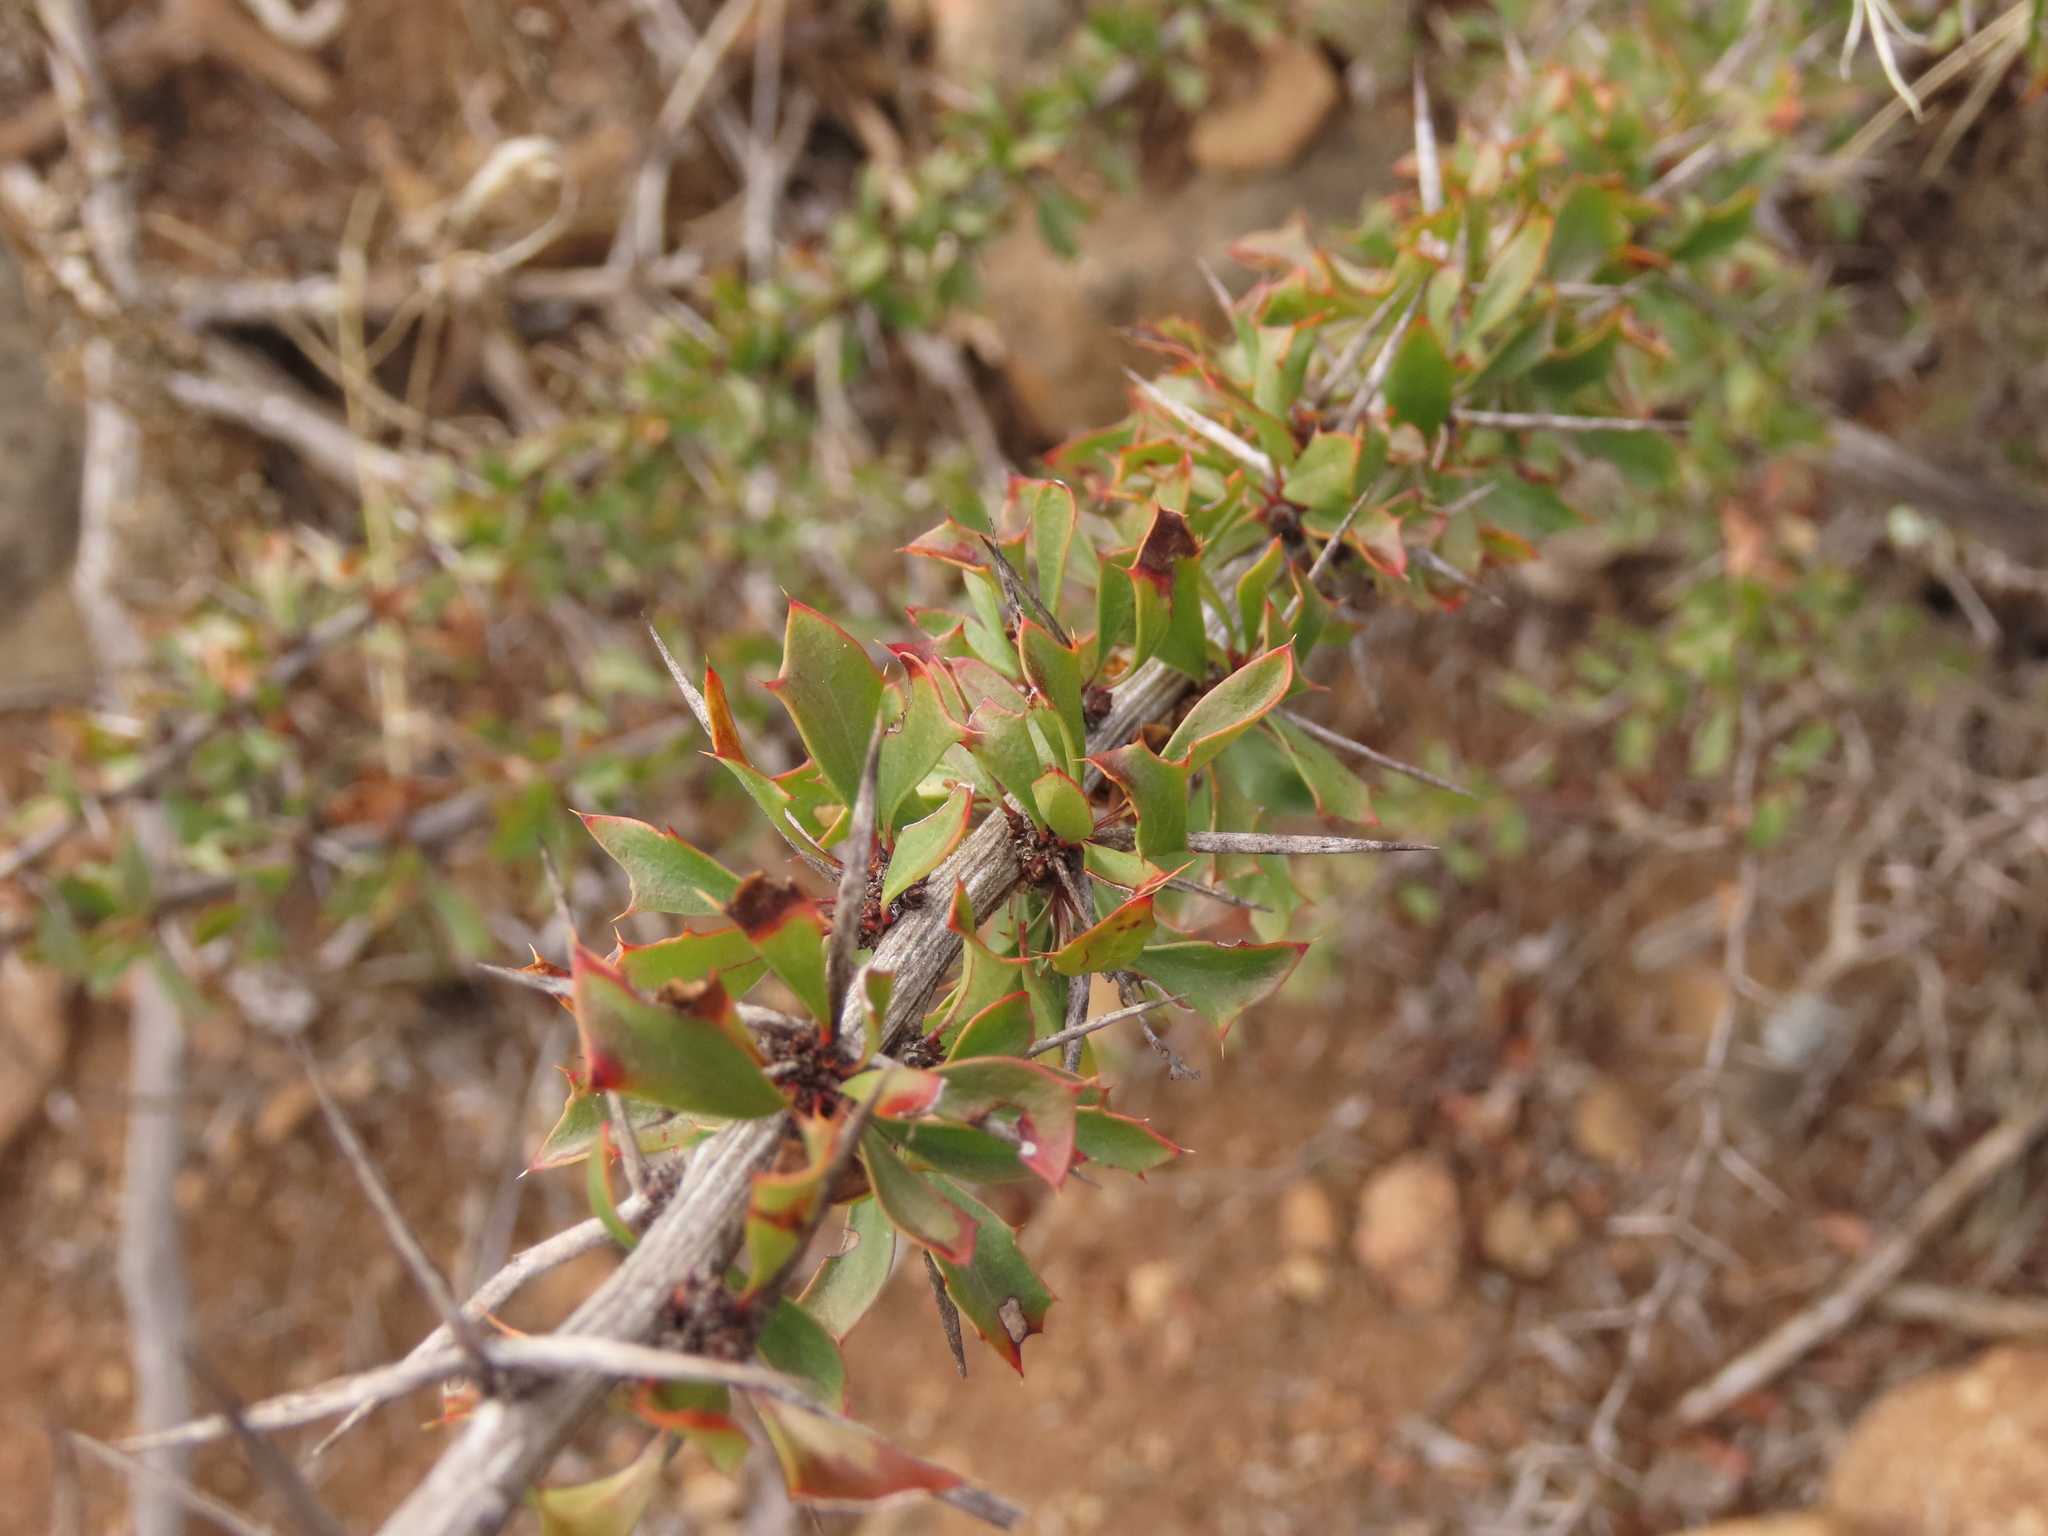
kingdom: Plantae
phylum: Tracheophyta
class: Magnoliopsida
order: Ranunculales
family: Berberidaceae
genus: Berberis
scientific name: Berberis glomerata
